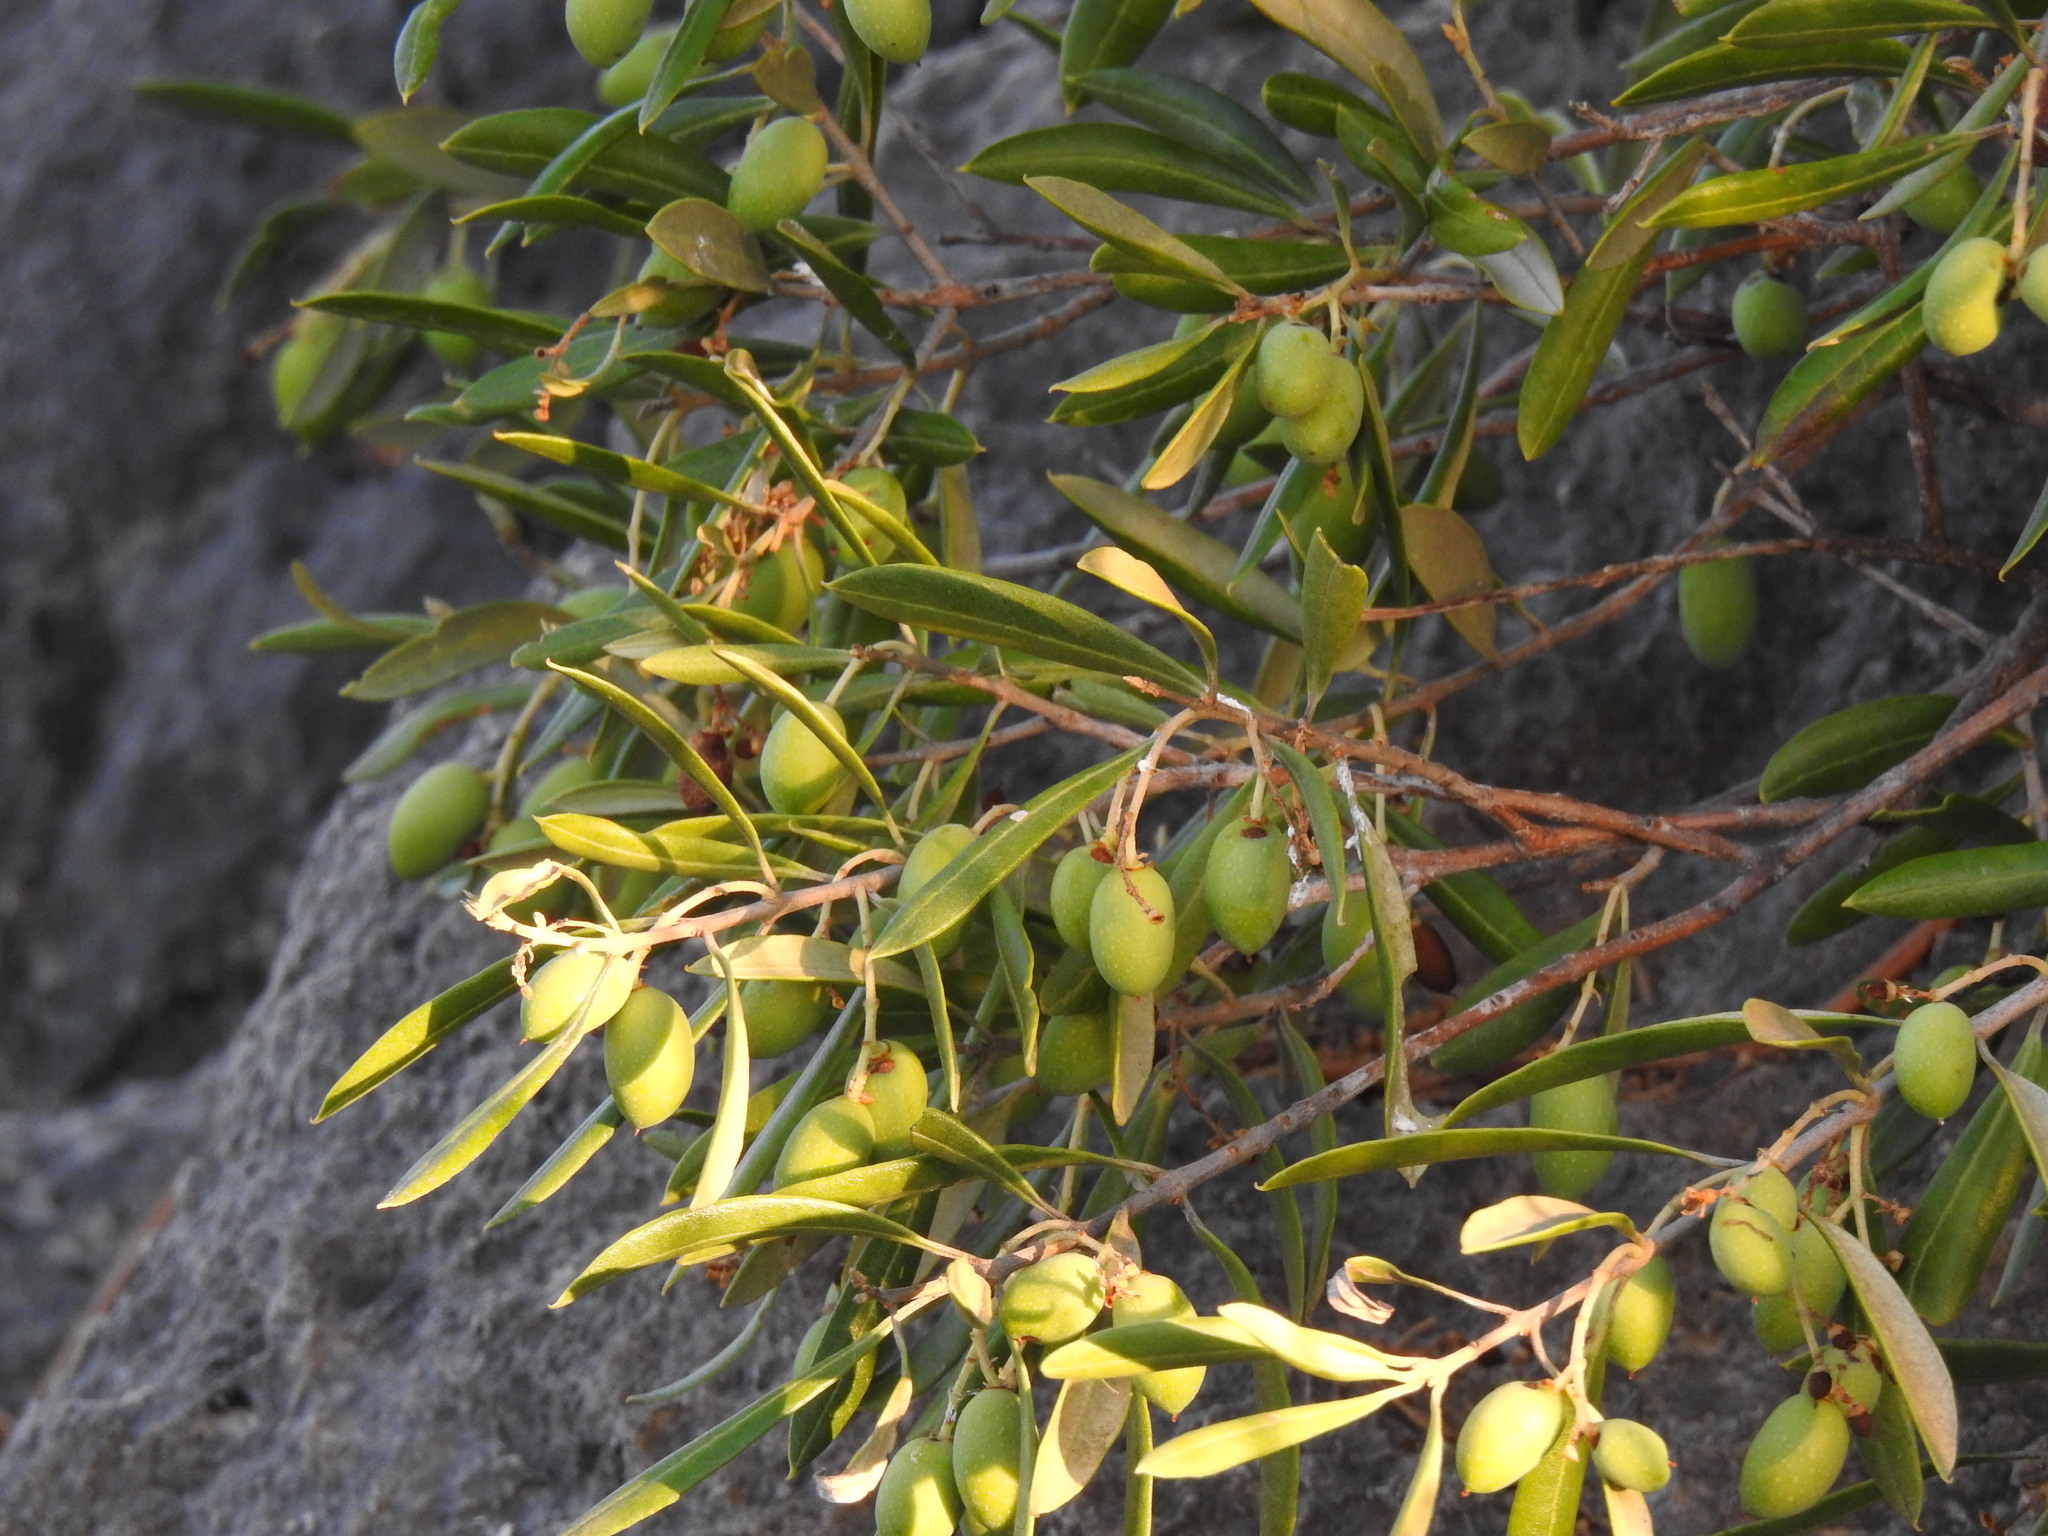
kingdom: Plantae
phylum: Tracheophyta
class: Magnoliopsida
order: Lamiales
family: Oleaceae
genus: Olea
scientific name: Olea europaea
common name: Olive
